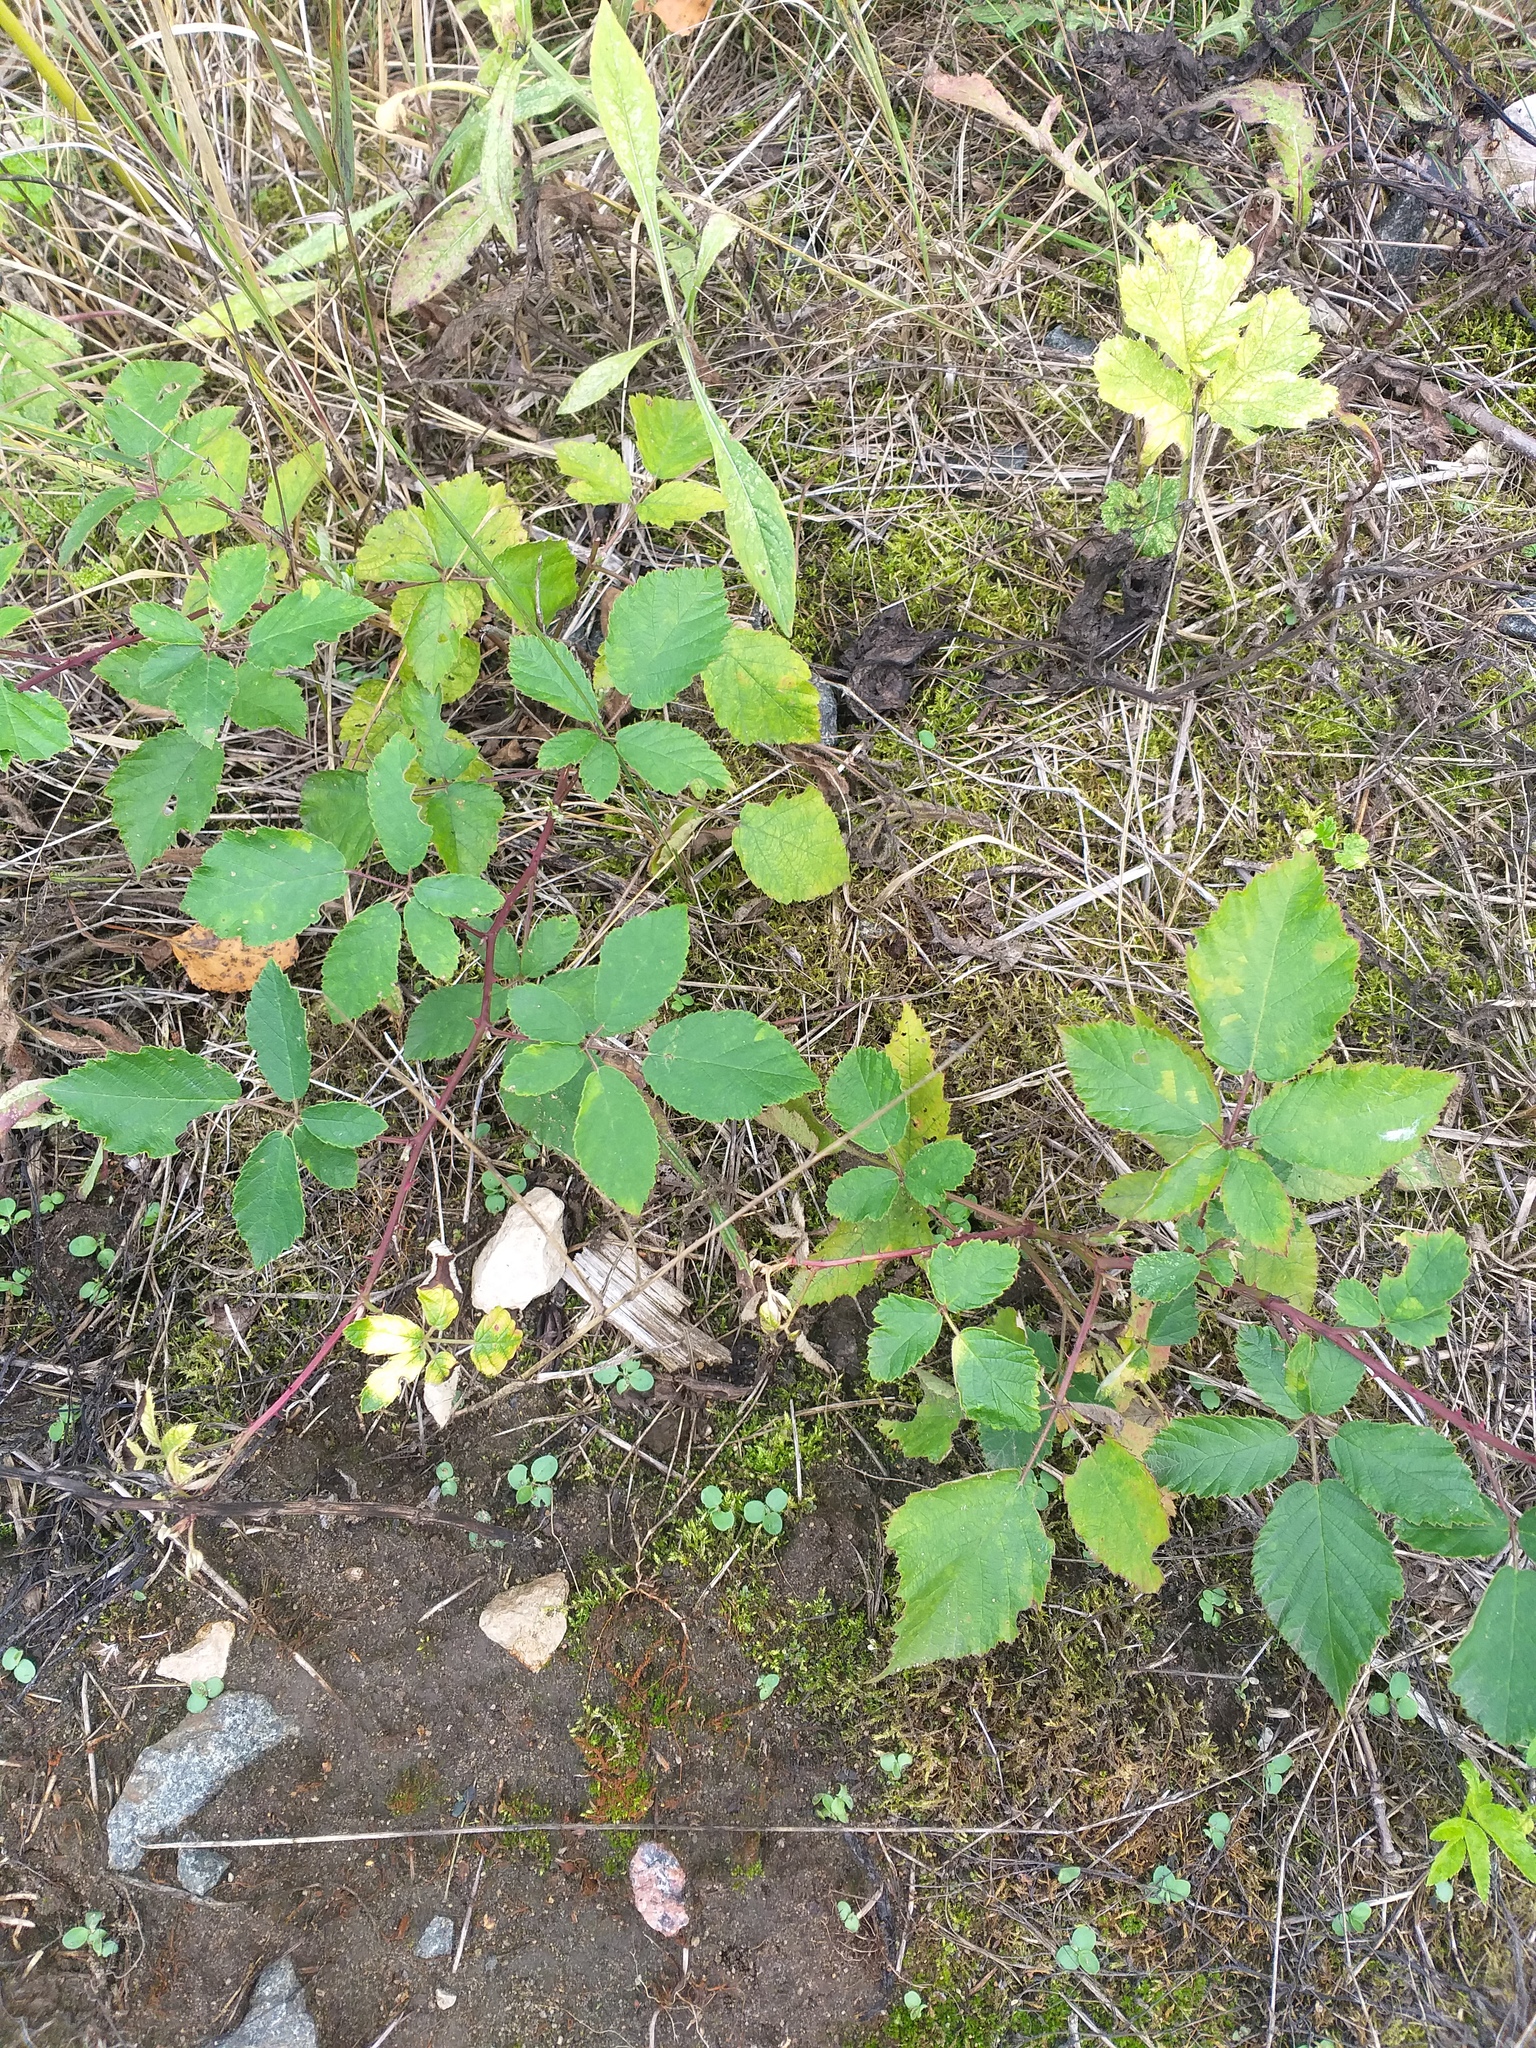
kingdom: Plantae
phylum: Tracheophyta
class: Magnoliopsida
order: Rosales
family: Rosaceae
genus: Rubus
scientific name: Rubus procerus
